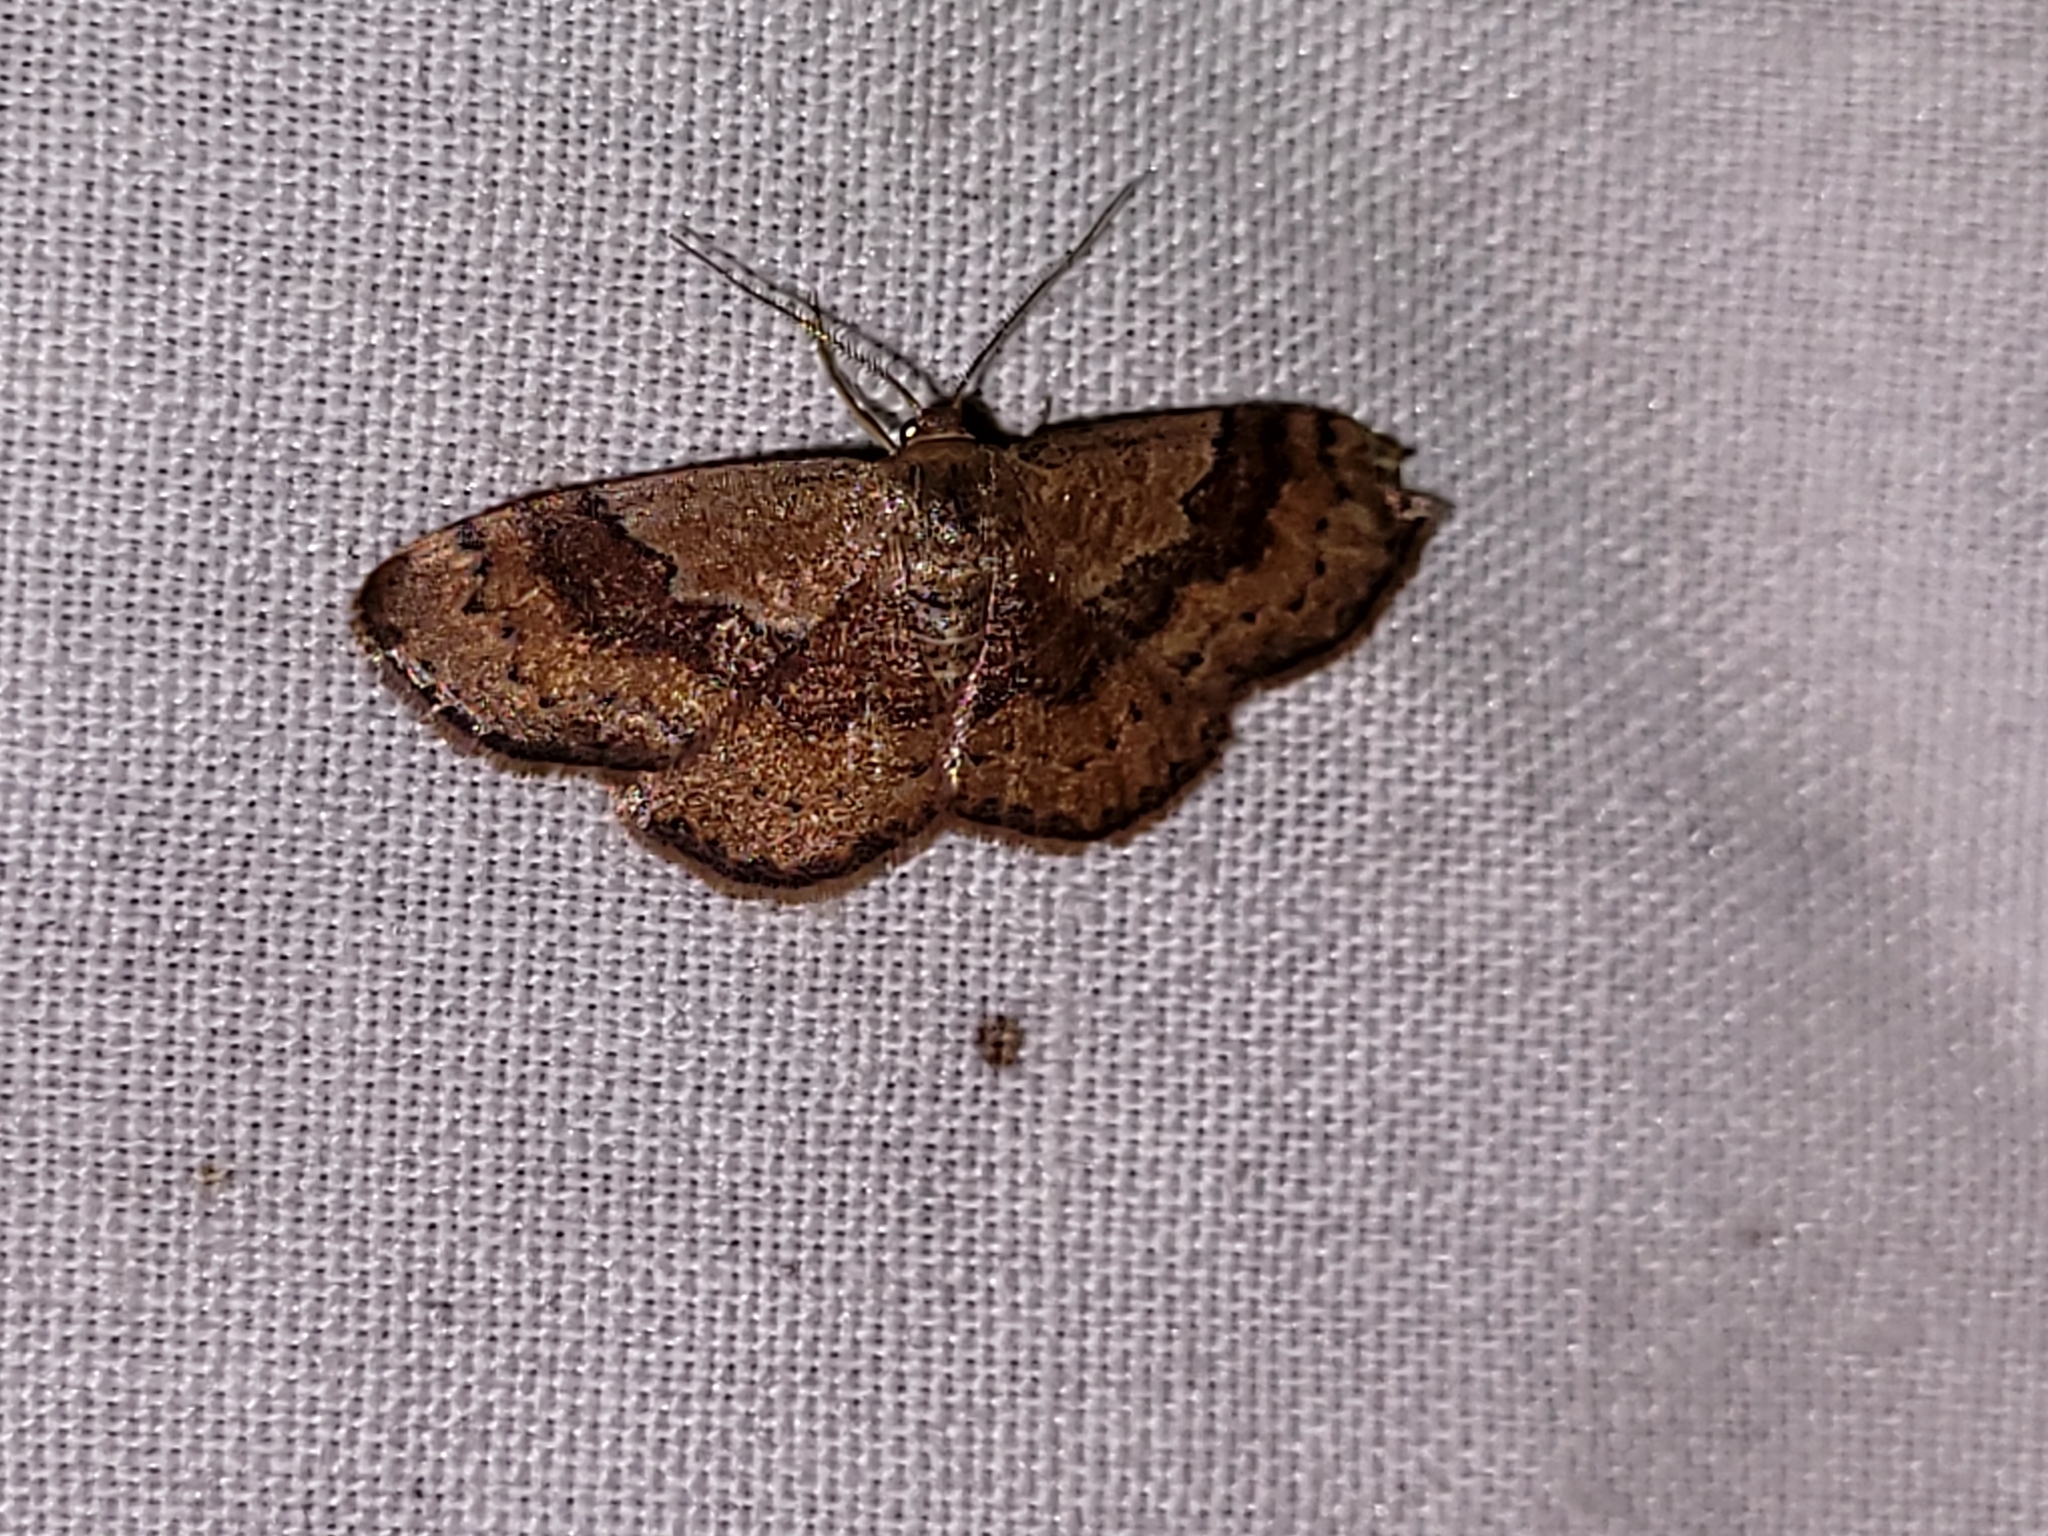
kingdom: Animalia
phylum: Arthropoda
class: Insecta
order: Lepidoptera
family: Geometridae
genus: Leptostales
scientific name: Leptostales ferruminaria
